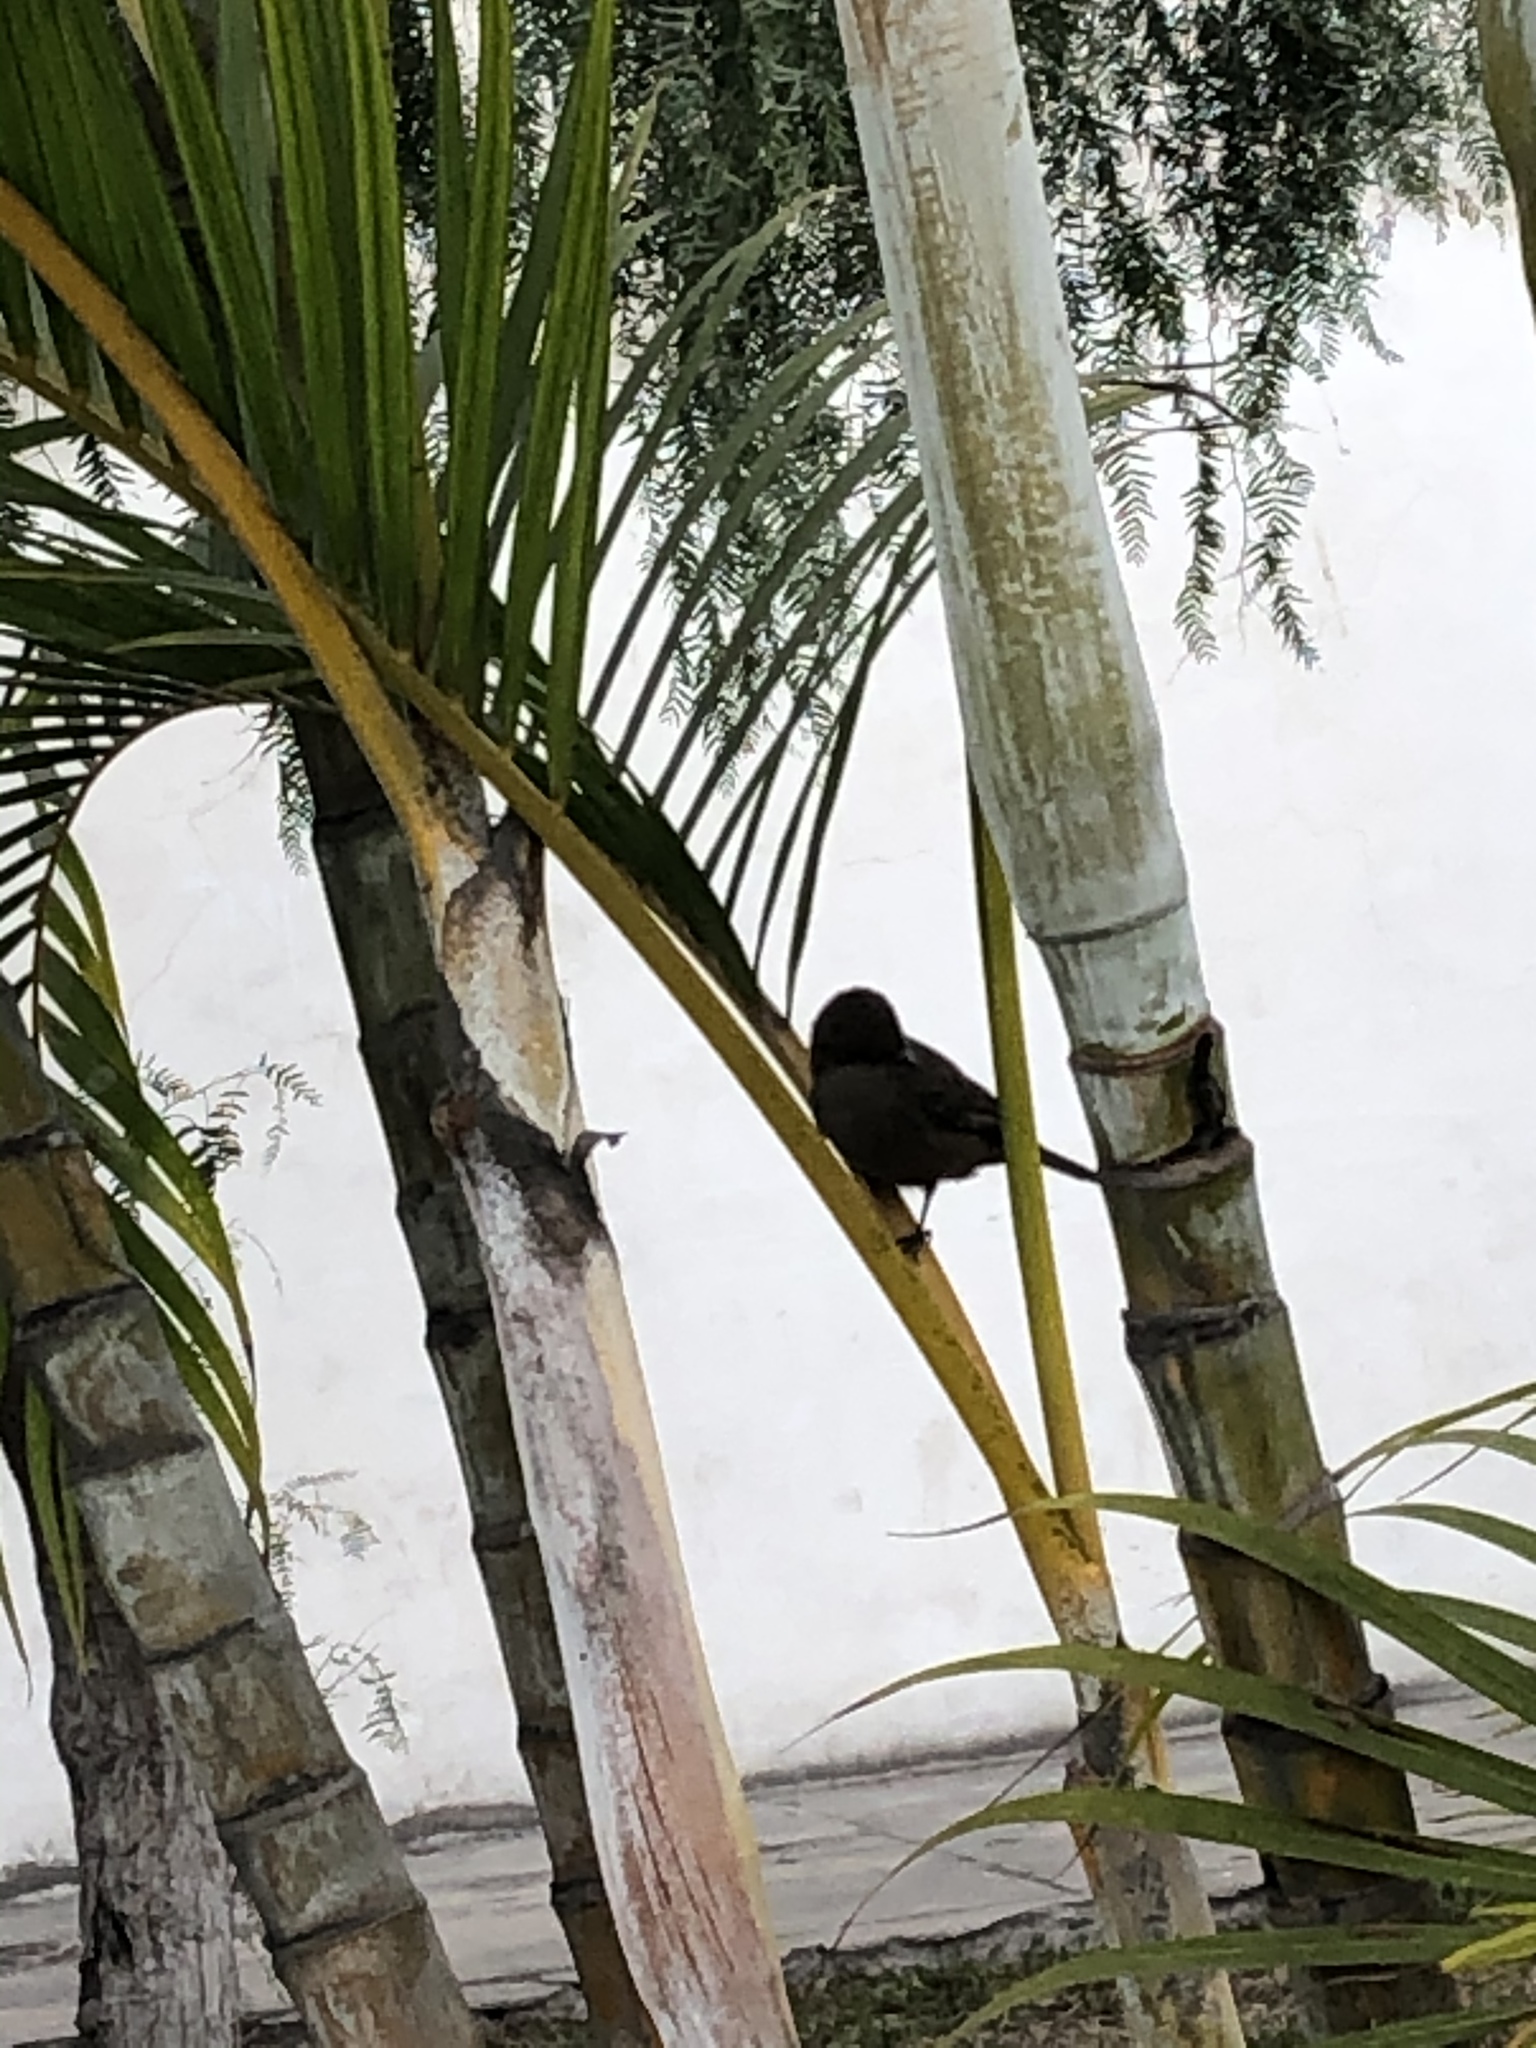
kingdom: Animalia
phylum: Chordata
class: Aves
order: Passeriformes
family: Tyrannidae
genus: Pyrocephalus
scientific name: Pyrocephalus rubinus
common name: Vermilion flycatcher
